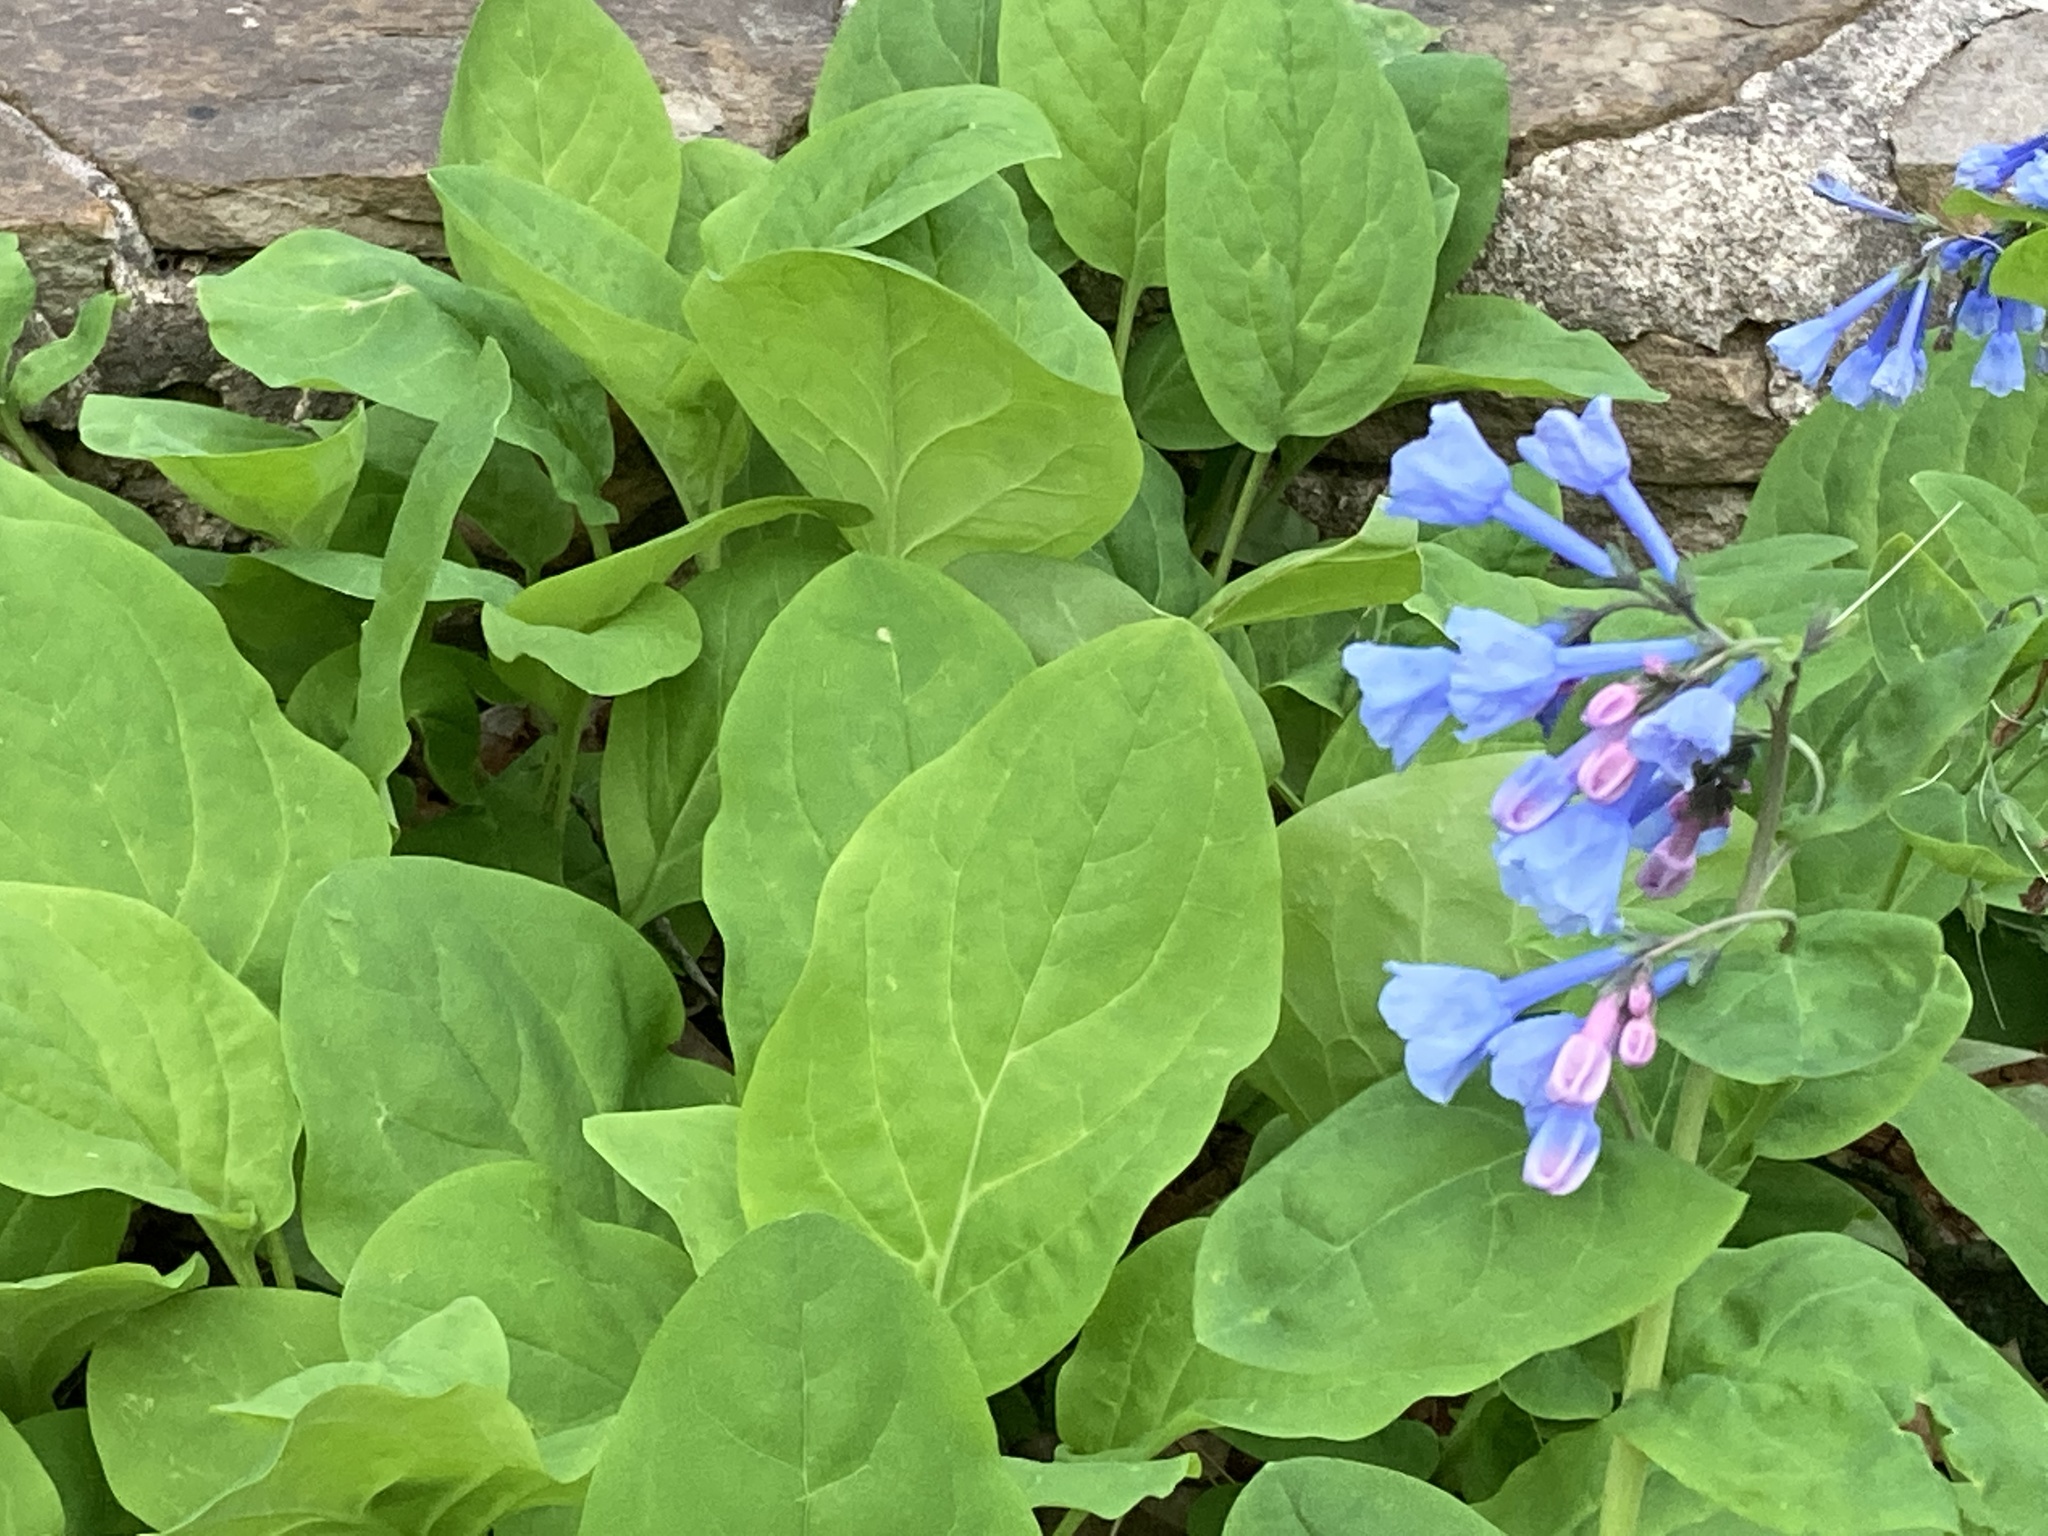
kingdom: Plantae
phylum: Tracheophyta
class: Magnoliopsida
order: Boraginales
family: Boraginaceae
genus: Mertensia
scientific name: Mertensia virginica
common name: Virginia bluebells
